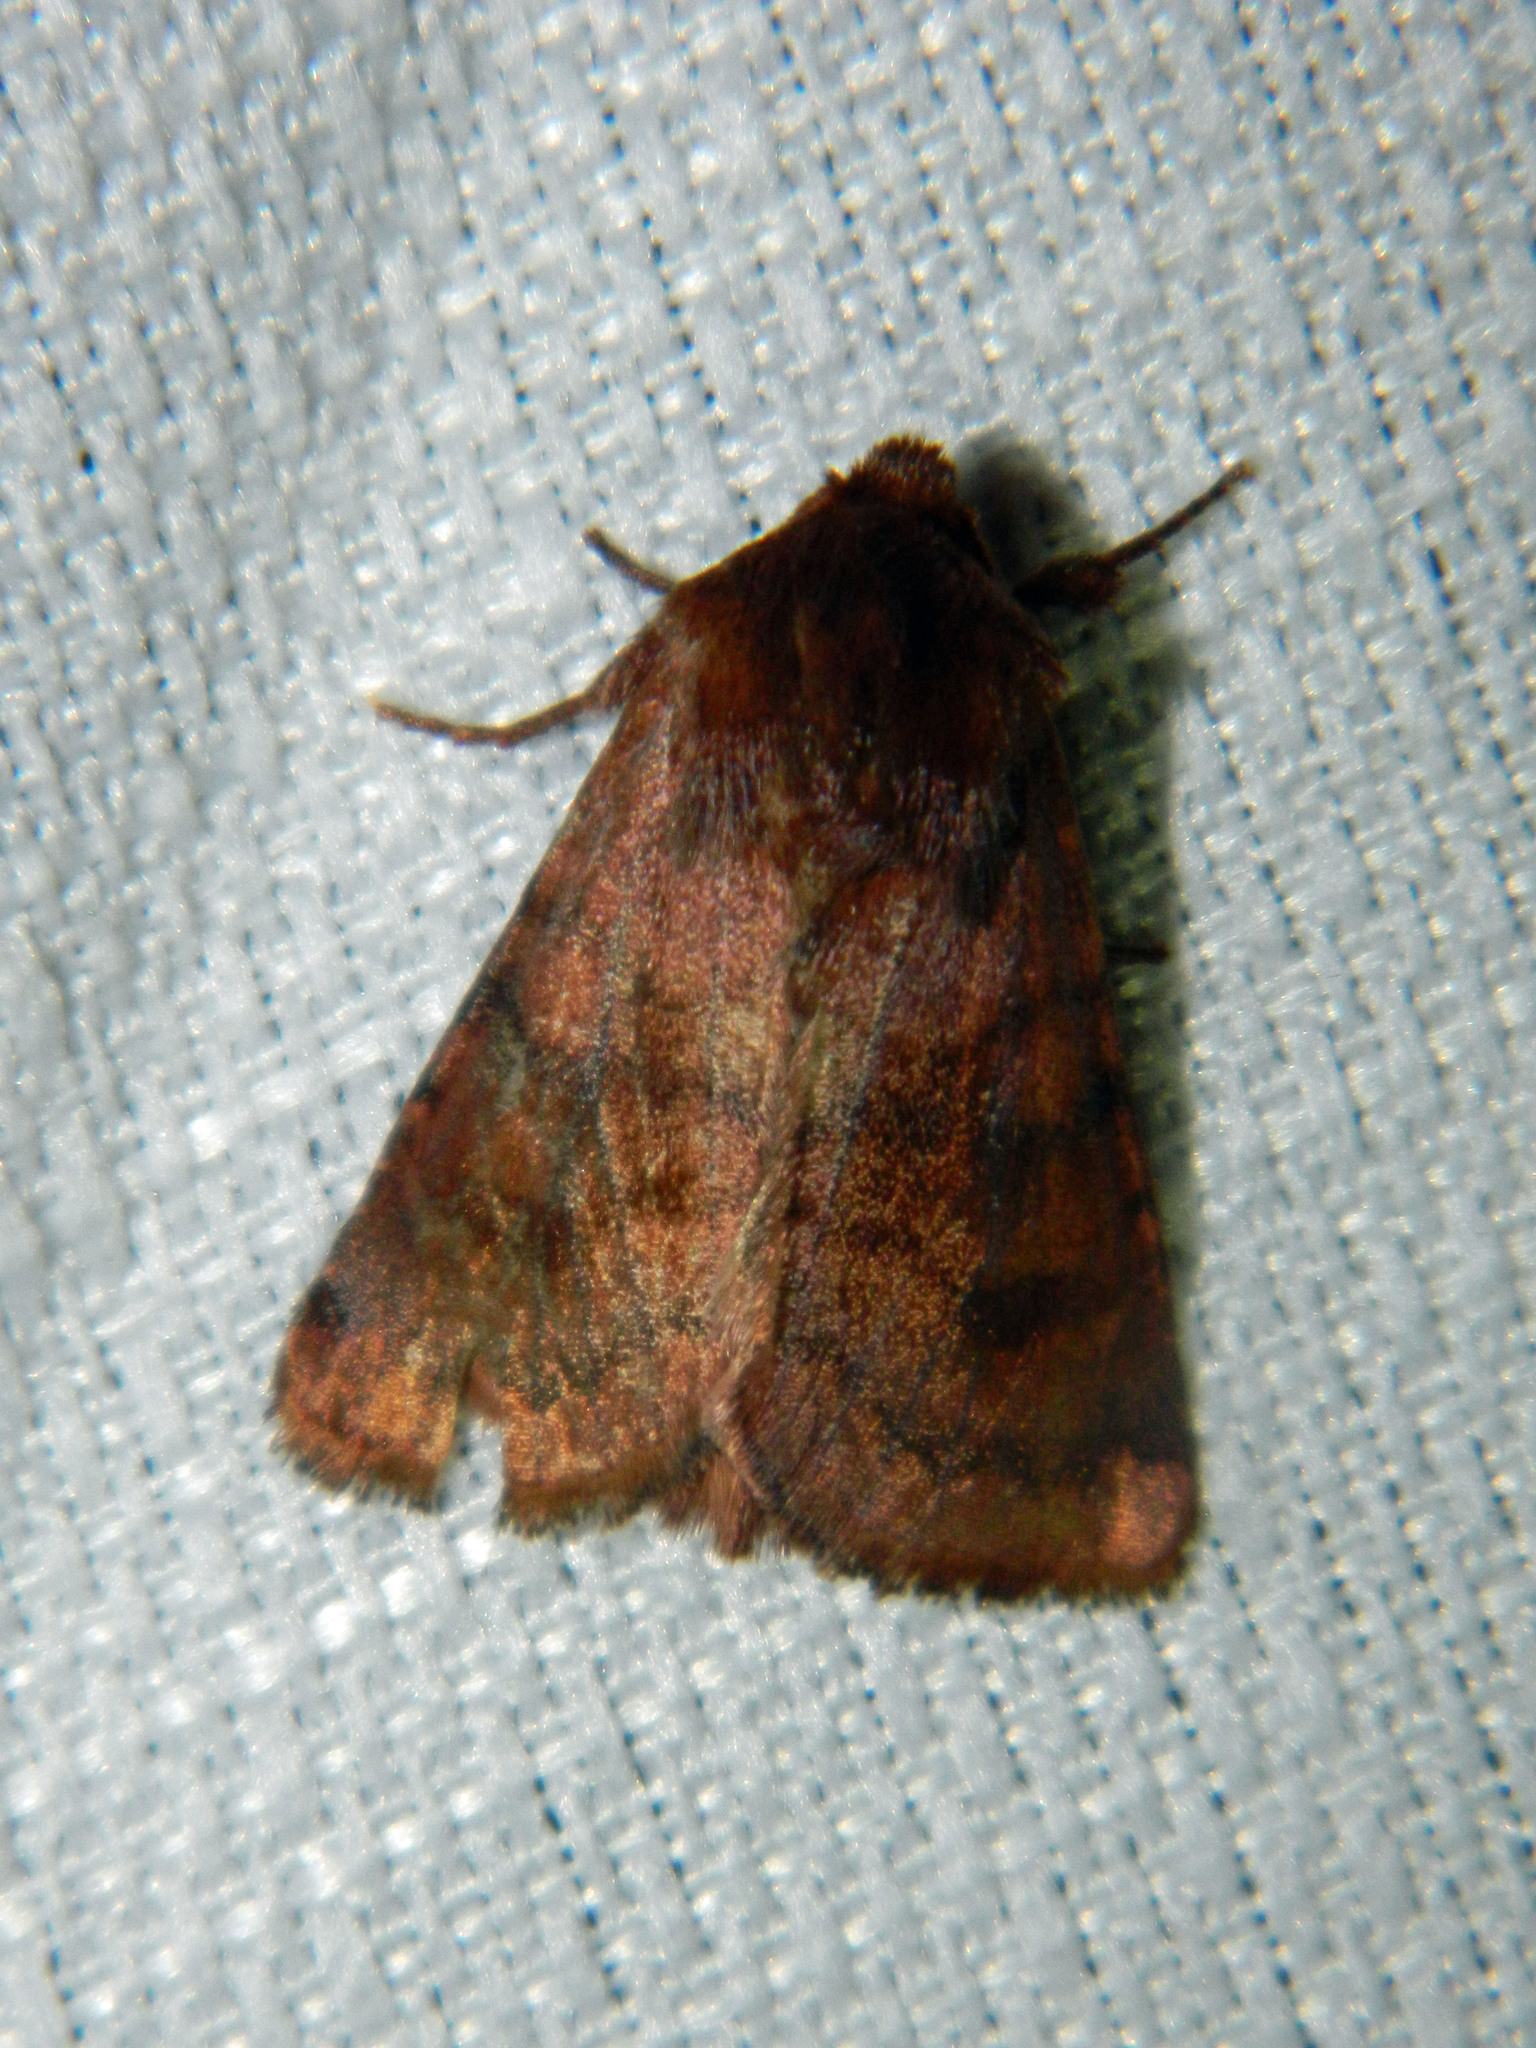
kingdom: Animalia
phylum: Arthropoda
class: Insecta
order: Lepidoptera
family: Noctuidae
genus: Nephelodes
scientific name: Nephelodes minians
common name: Bronzed cutworm
